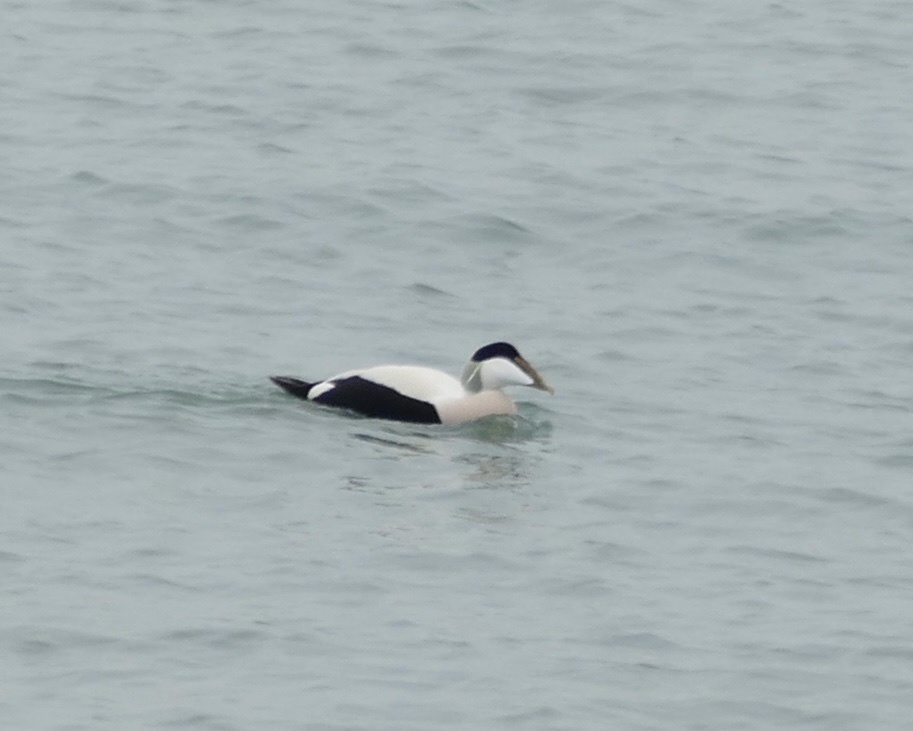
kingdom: Animalia
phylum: Chordata
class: Aves
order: Anseriformes
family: Anatidae
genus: Somateria
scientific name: Somateria mollissima
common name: Common eider
